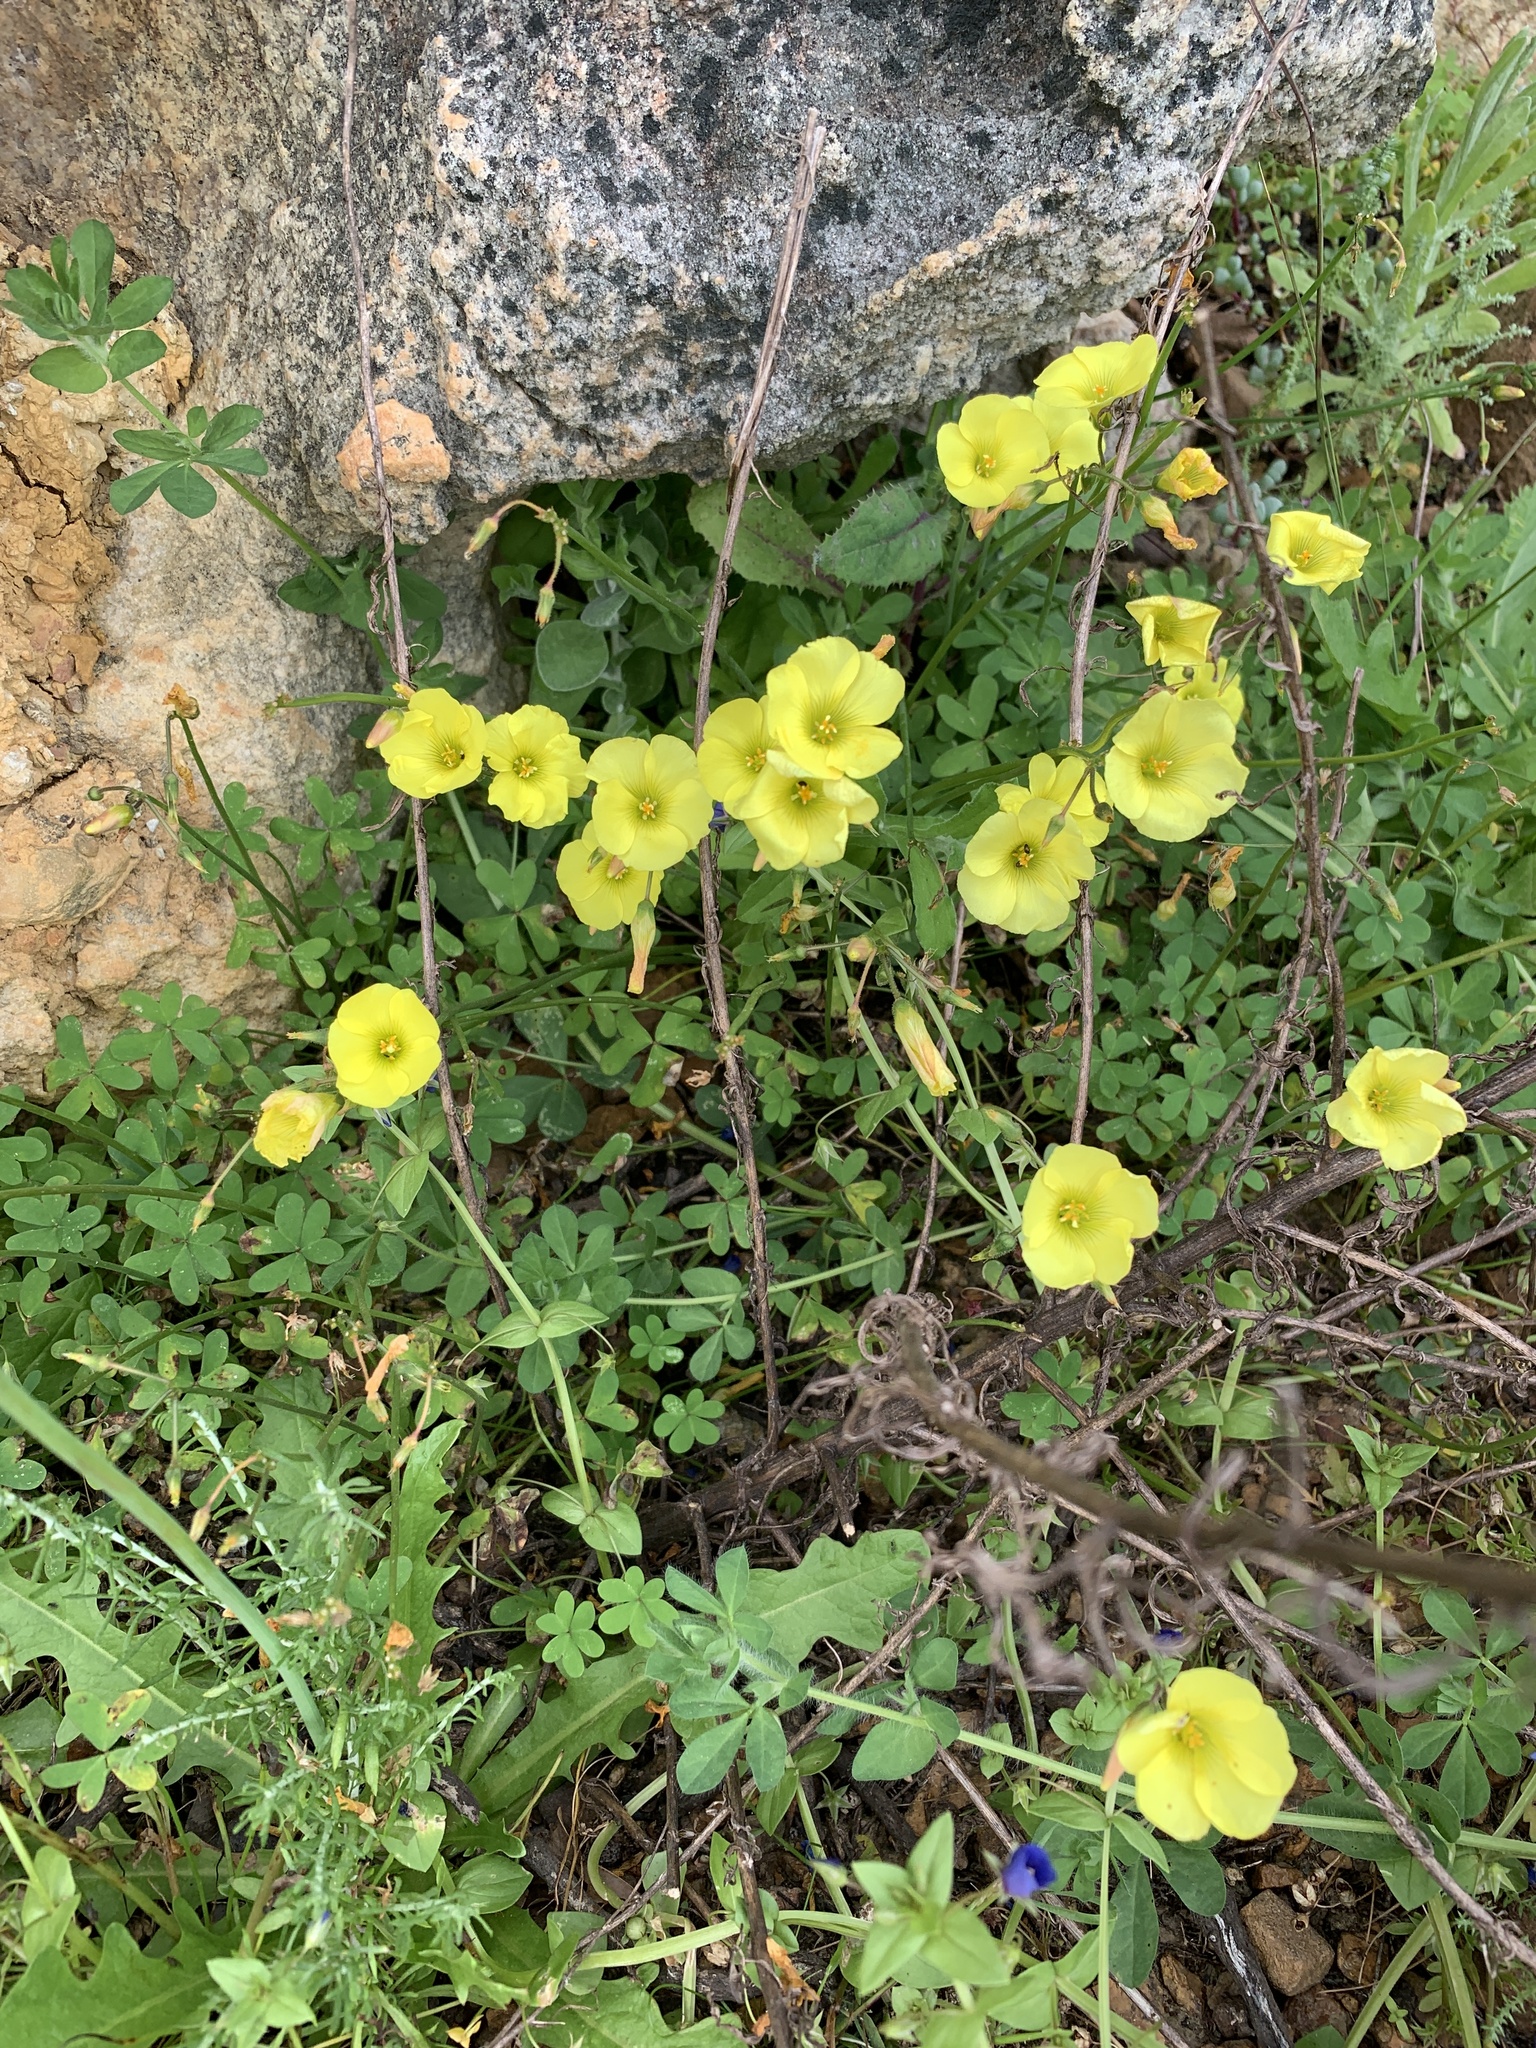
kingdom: Plantae
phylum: Tracheophyta
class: Magnoliopsida
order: Oxalidales
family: Oxalidaceae
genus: Oxalis
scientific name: Oxalis pes-caprae
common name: Bermuda-buttercup
